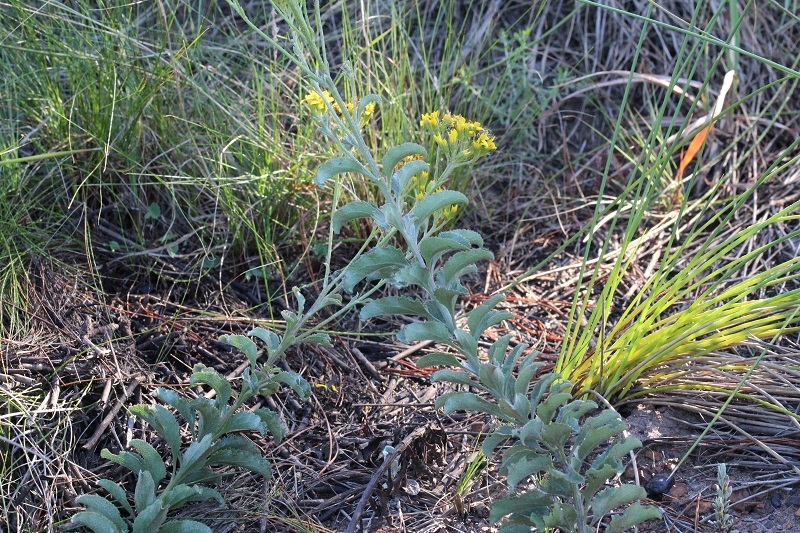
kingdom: Plantae
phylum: Tracheophyta
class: Magnoliopsida
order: Asterales
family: Asteraceae
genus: Senecio
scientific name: Senecio crenatus
